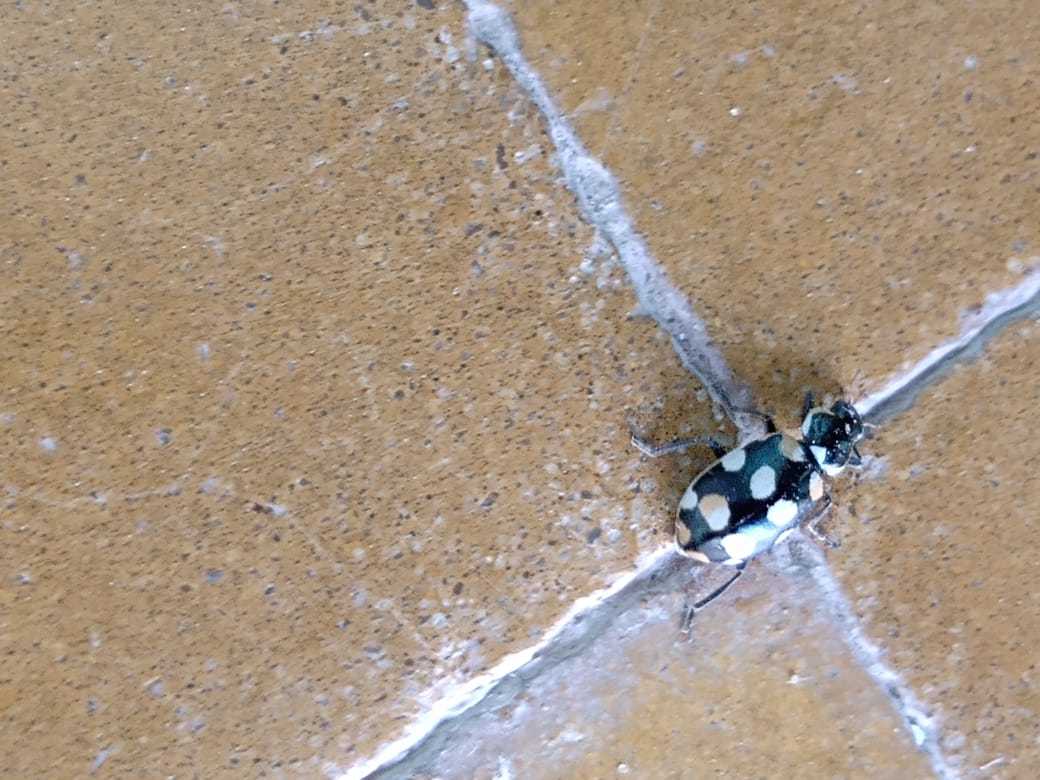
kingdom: Animalia
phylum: Arthropoda
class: Insecta
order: Coleoptera
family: Coccinellidae
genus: Eriopis
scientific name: Eriopis connexa
